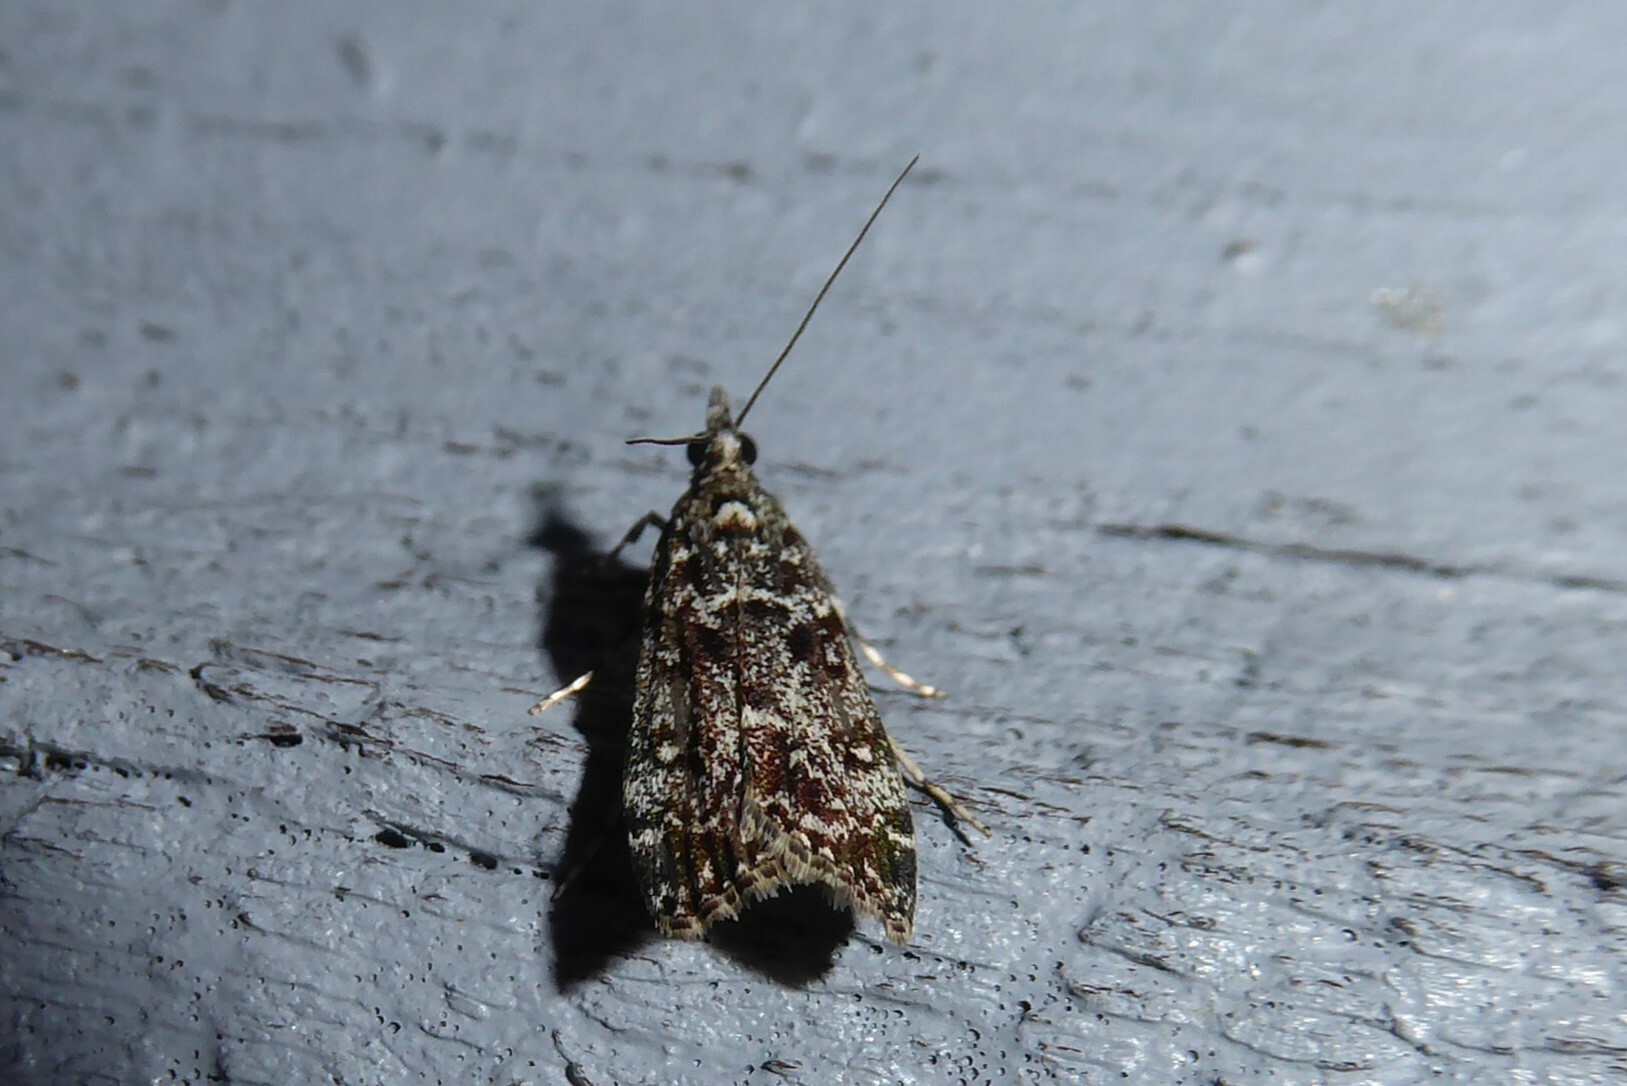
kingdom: Animalia
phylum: Arthropoda
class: Insecta
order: Lepidoptera
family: Crambidae
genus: Eudonia
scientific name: Eudonia philerga
